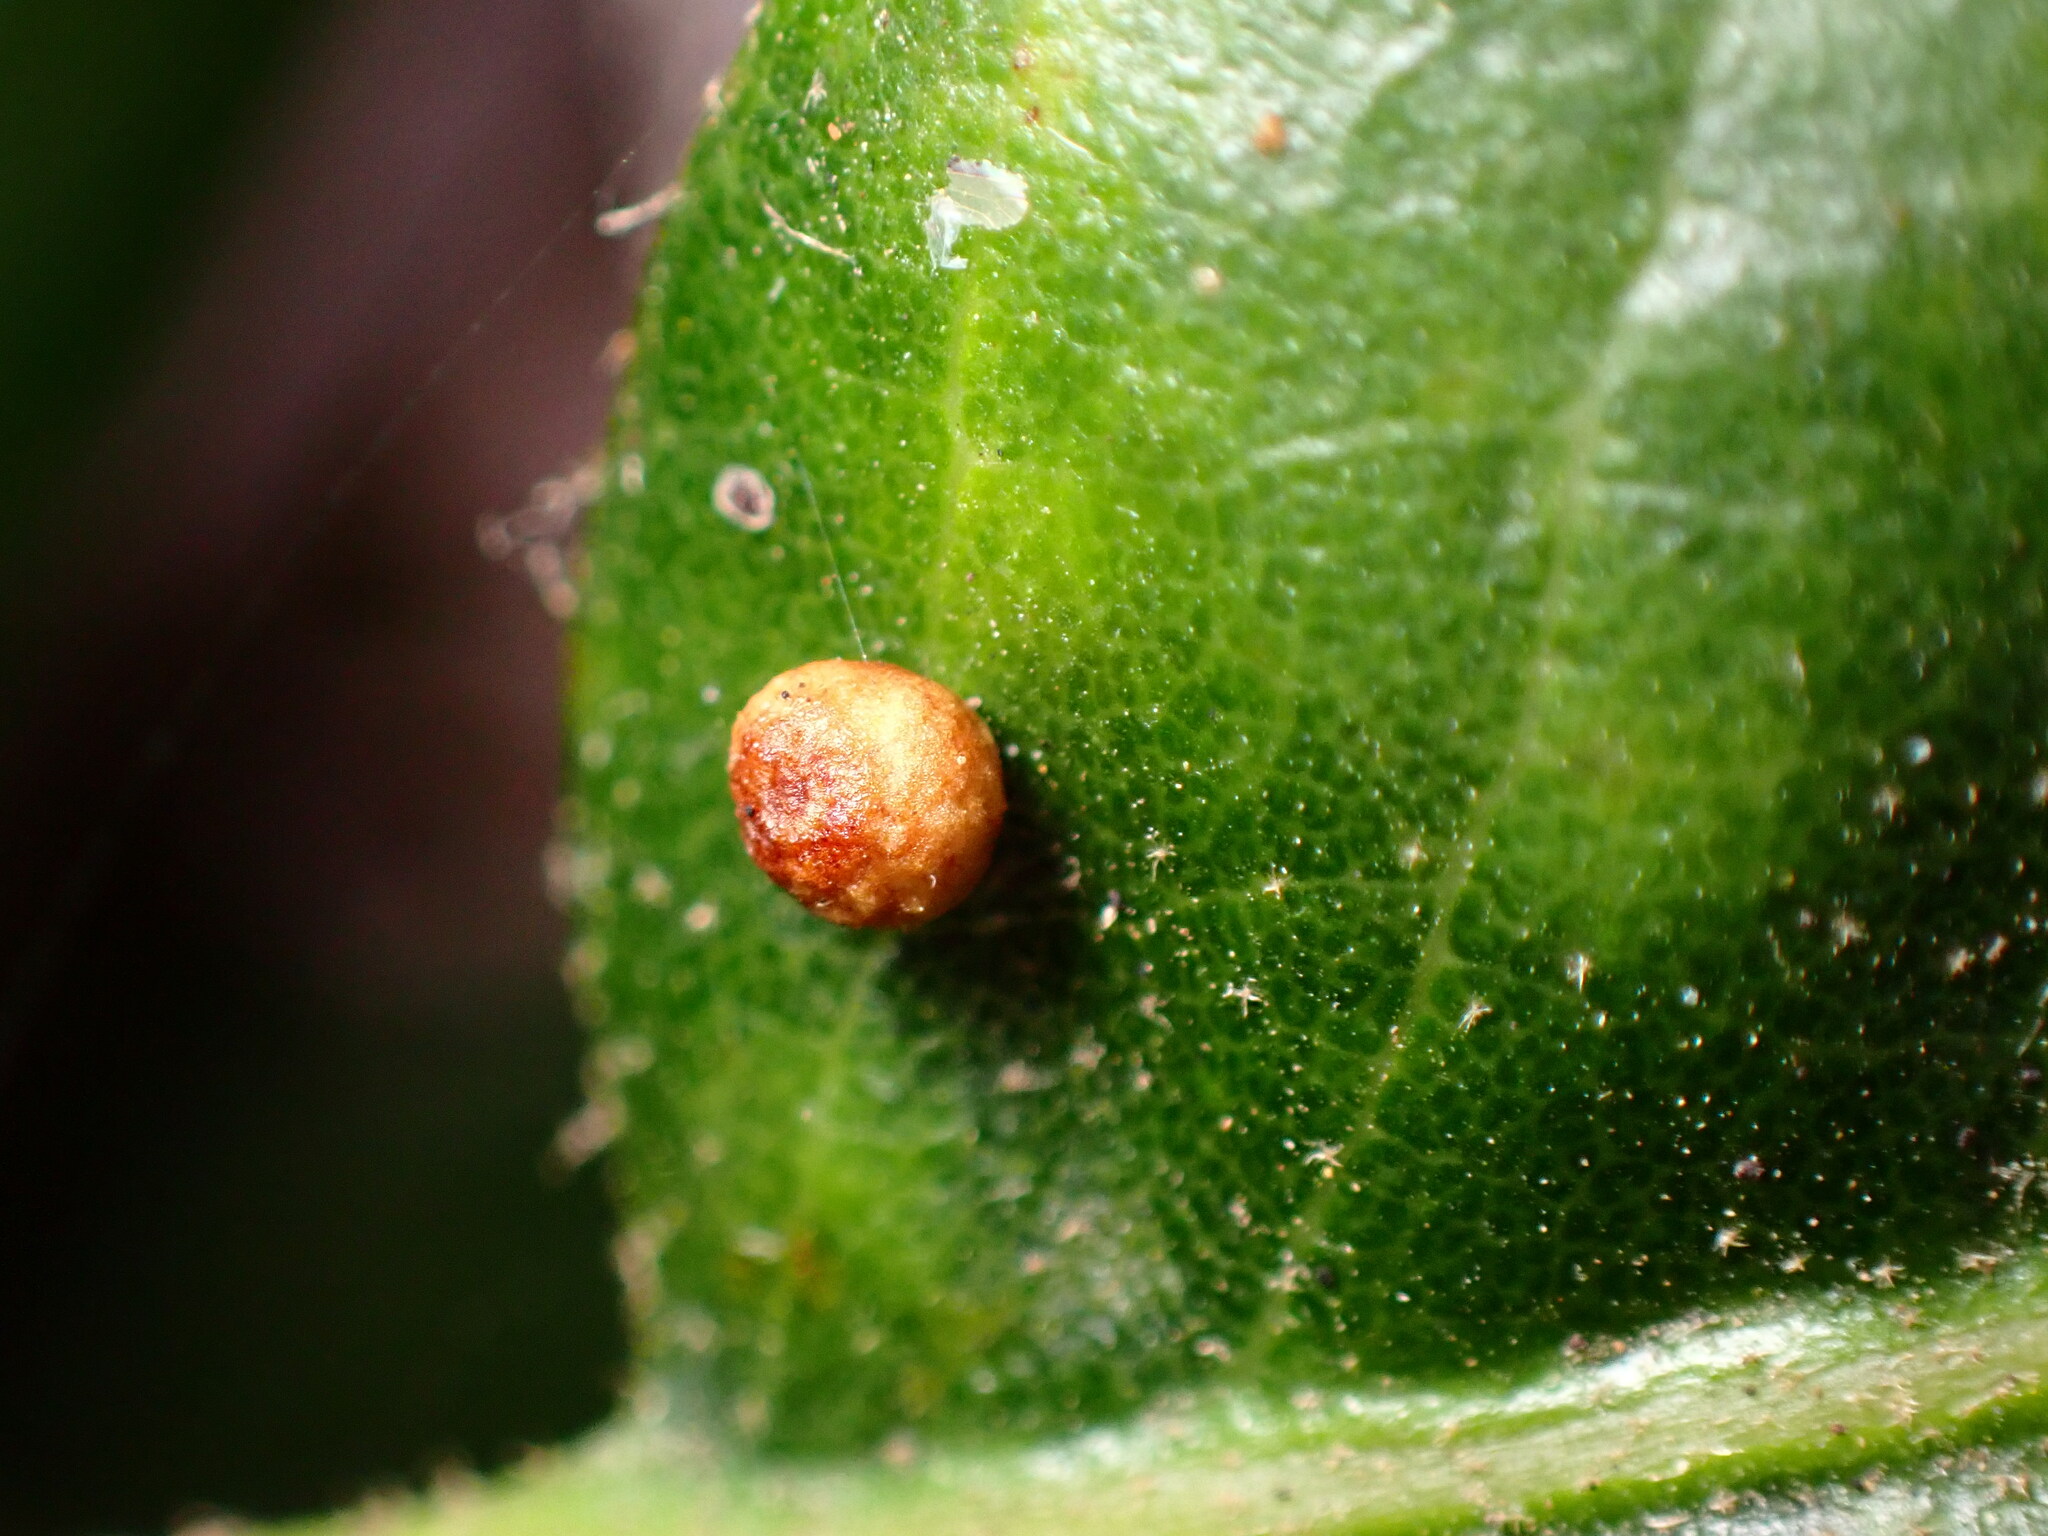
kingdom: Animalia
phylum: Arthropoda
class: Insecta
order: Hymenoptera
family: Cynipidae
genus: Dryocosmus
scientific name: Dryocosmus
